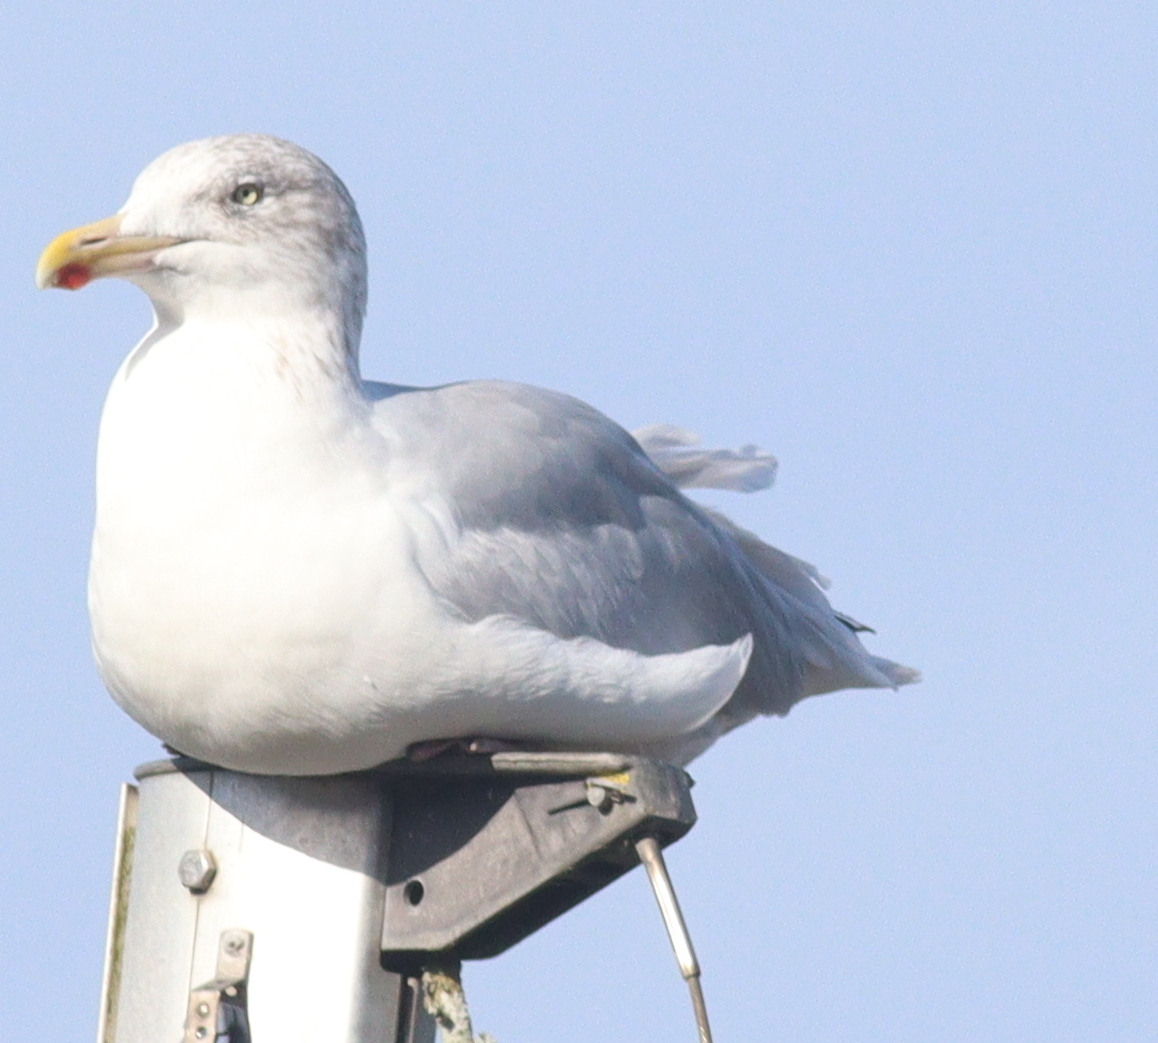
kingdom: Animalia
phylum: Chordata
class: Aves
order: Charadriiformes
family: Laridae
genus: Larus
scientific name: Larus argentatus
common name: Herring gull
